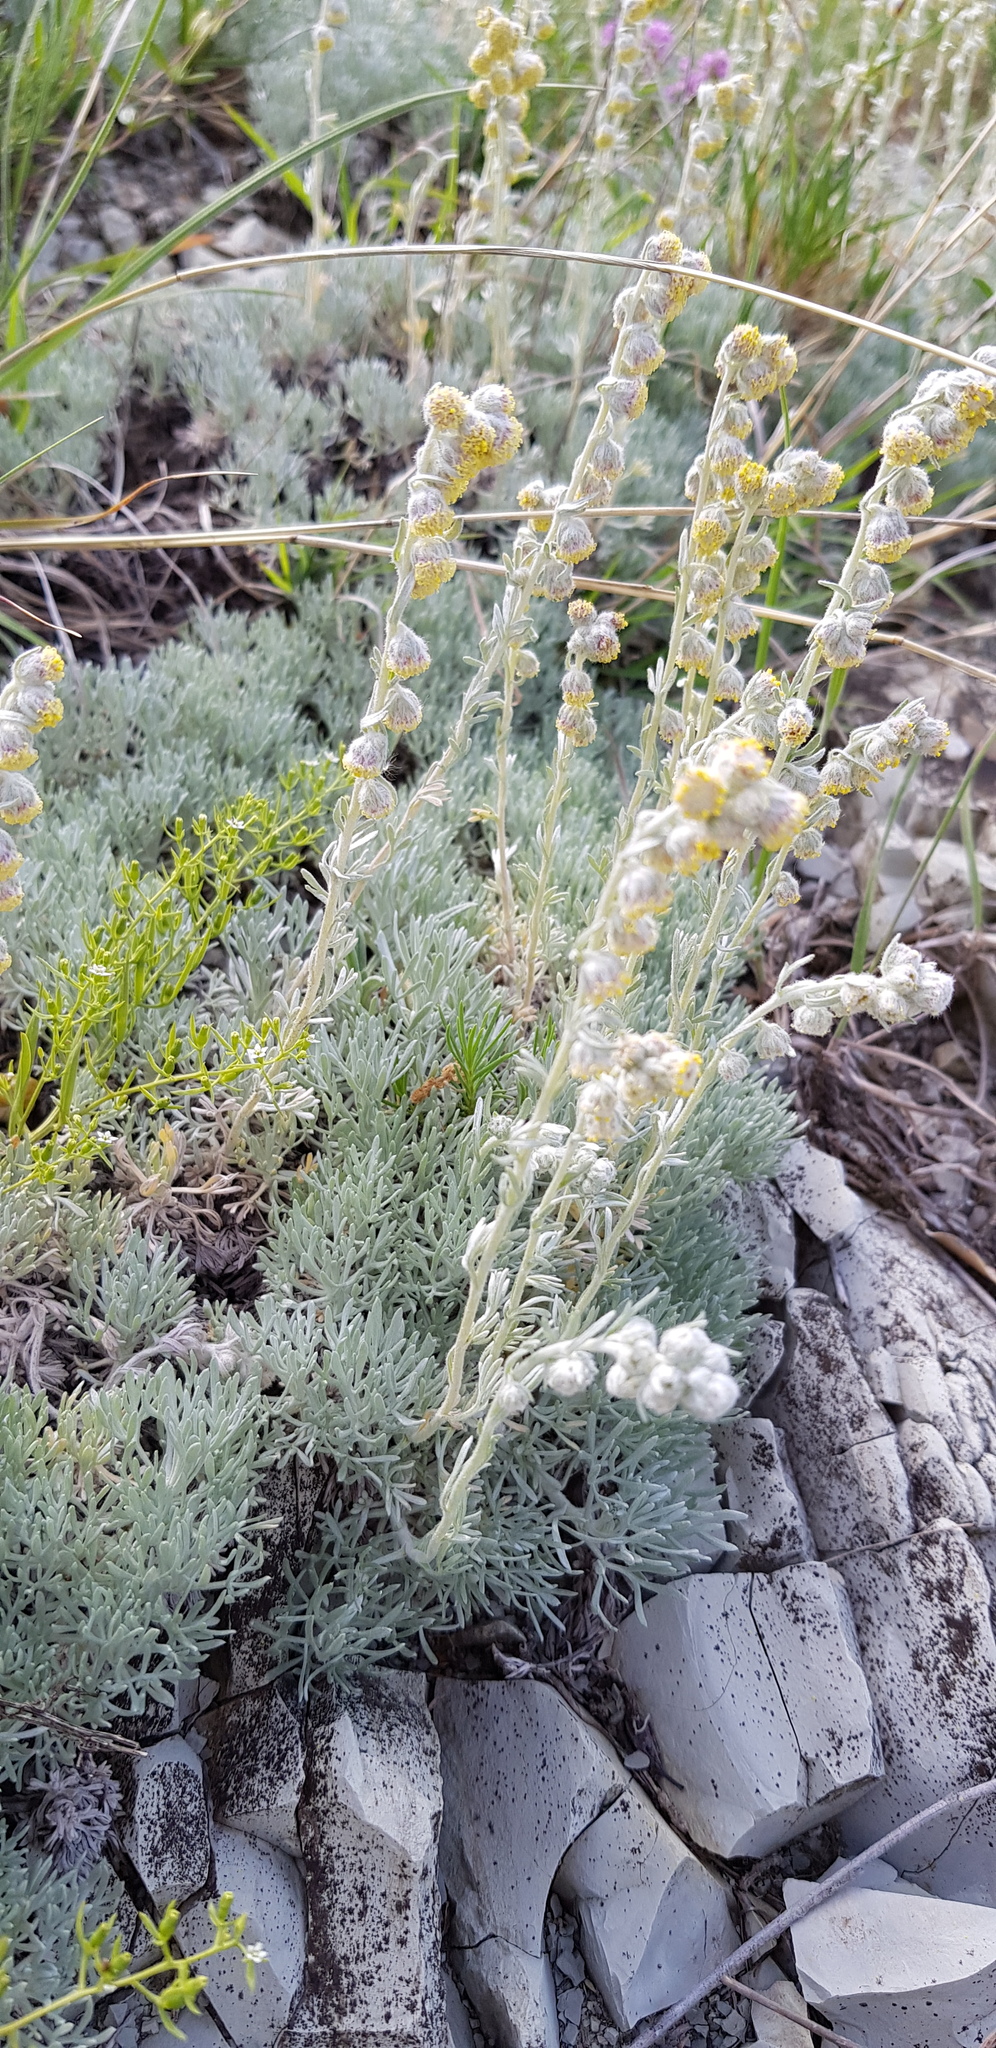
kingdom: Plantae
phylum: Tracheophyta
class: Magnoliopsida
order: Asterales
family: Asteraceae
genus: Artemisia
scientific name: Artemisia alpina
